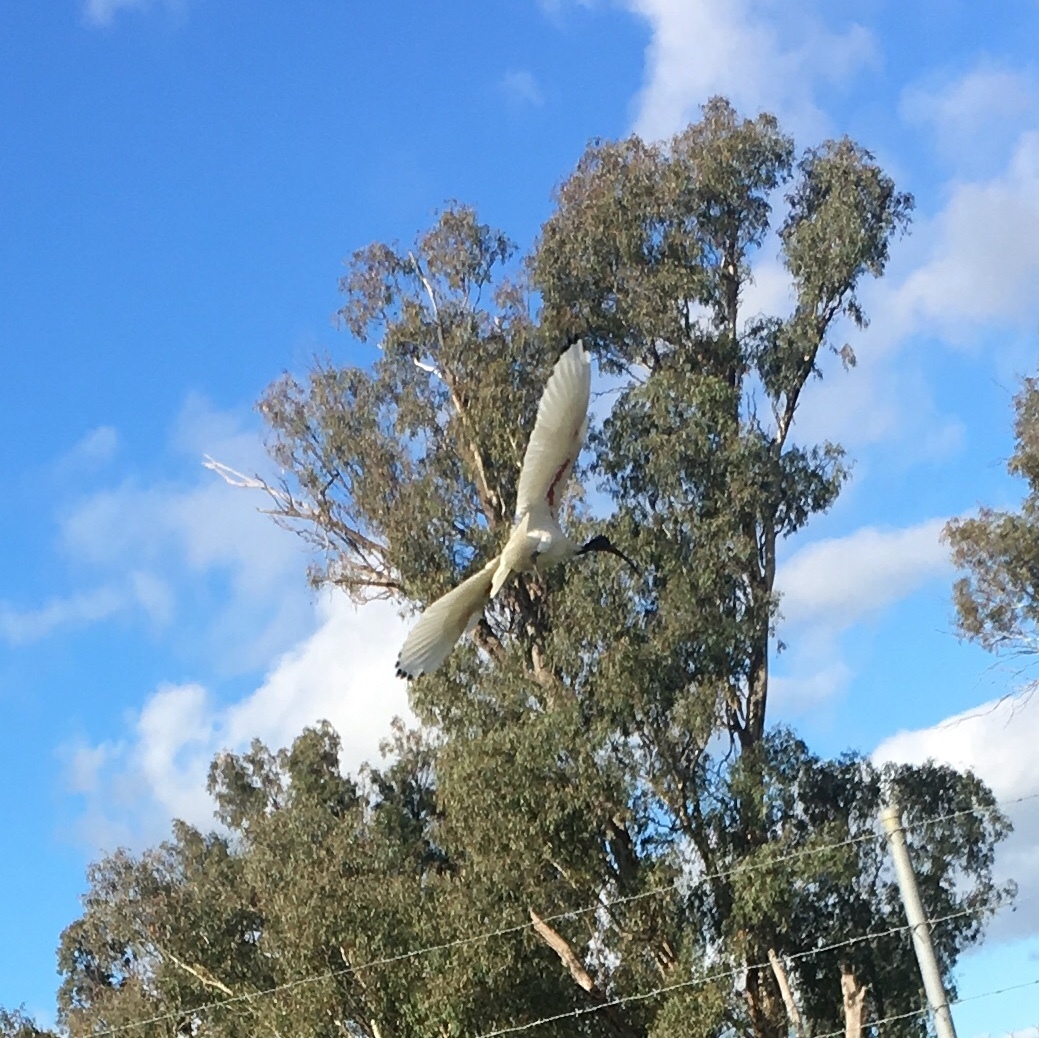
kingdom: Animalia
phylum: Chordata
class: Aves
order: Pelecaniformes
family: Threskiornithidae
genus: Threskiornis
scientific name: Threskiornis molucca
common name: Australian white ibis
